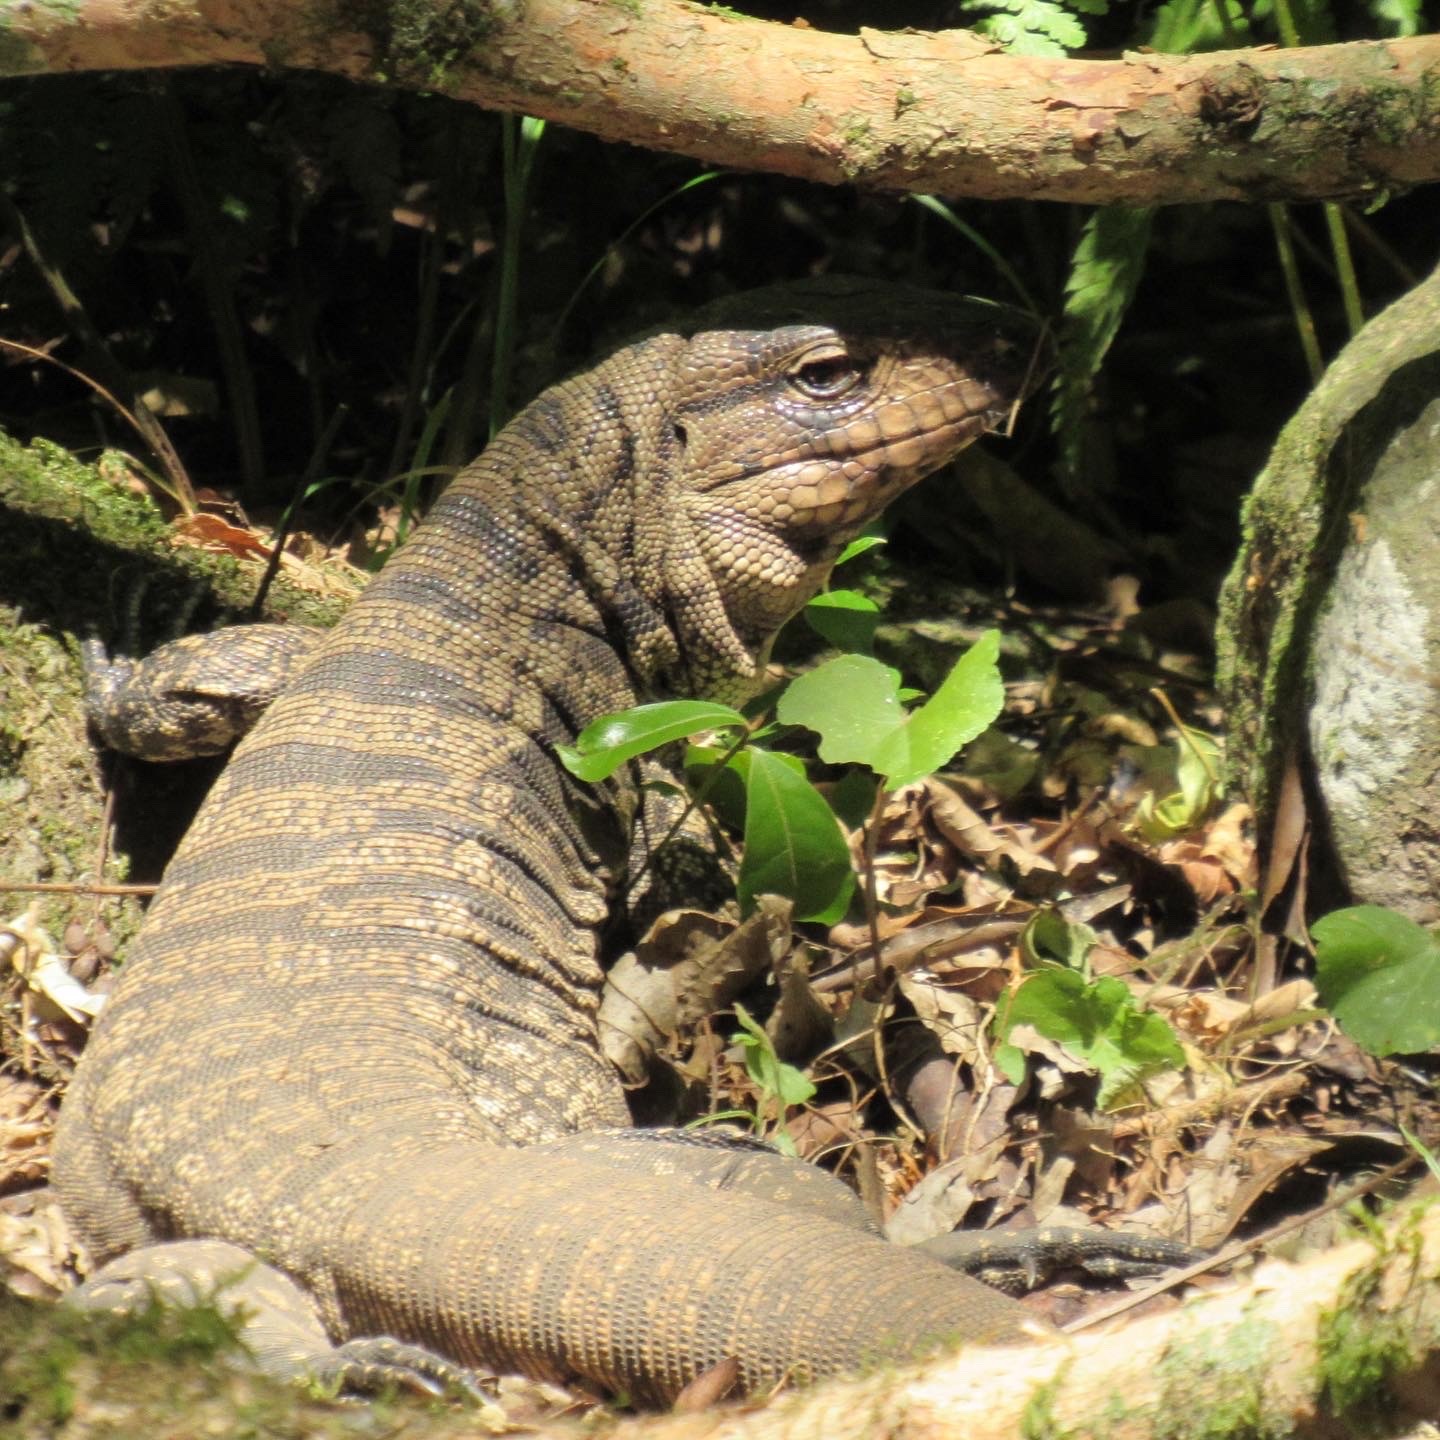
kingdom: Animalia
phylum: Chordata
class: Squamata
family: Teiidae
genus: Salvator
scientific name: Salvator merianae
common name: Argentine black and white tegu
